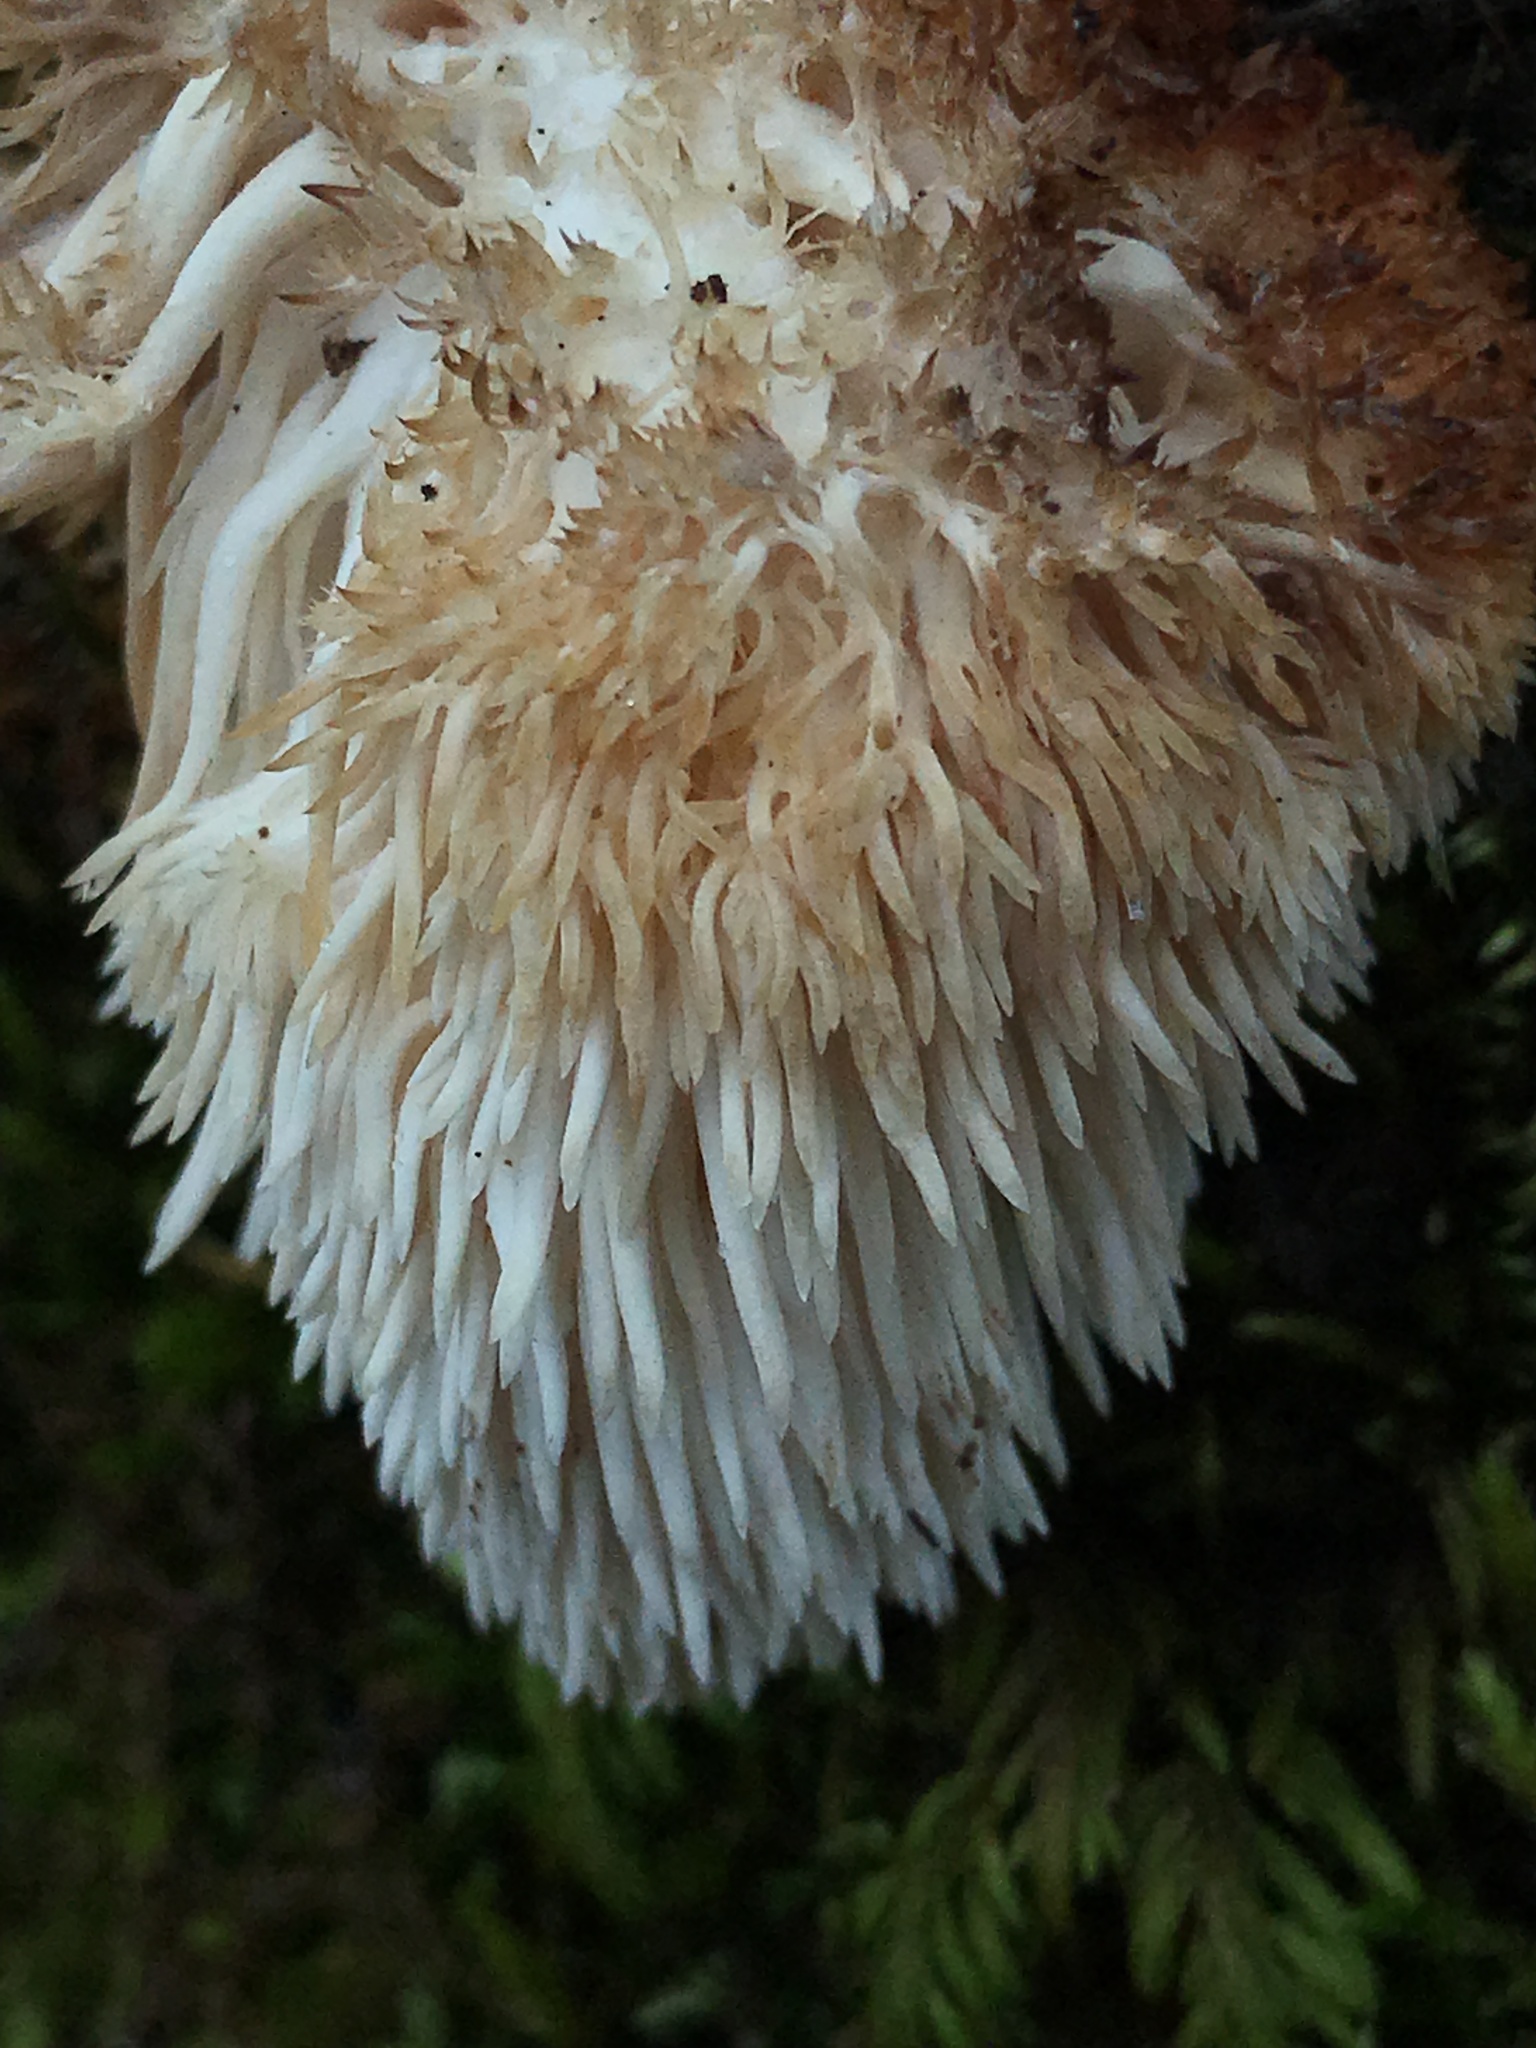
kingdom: Fungi
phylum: Basidiomycota
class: Agaricomycetes
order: Russulales
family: Hericiaceae
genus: Hericium
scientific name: Hericium erinaceus
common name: Bearded tooth
